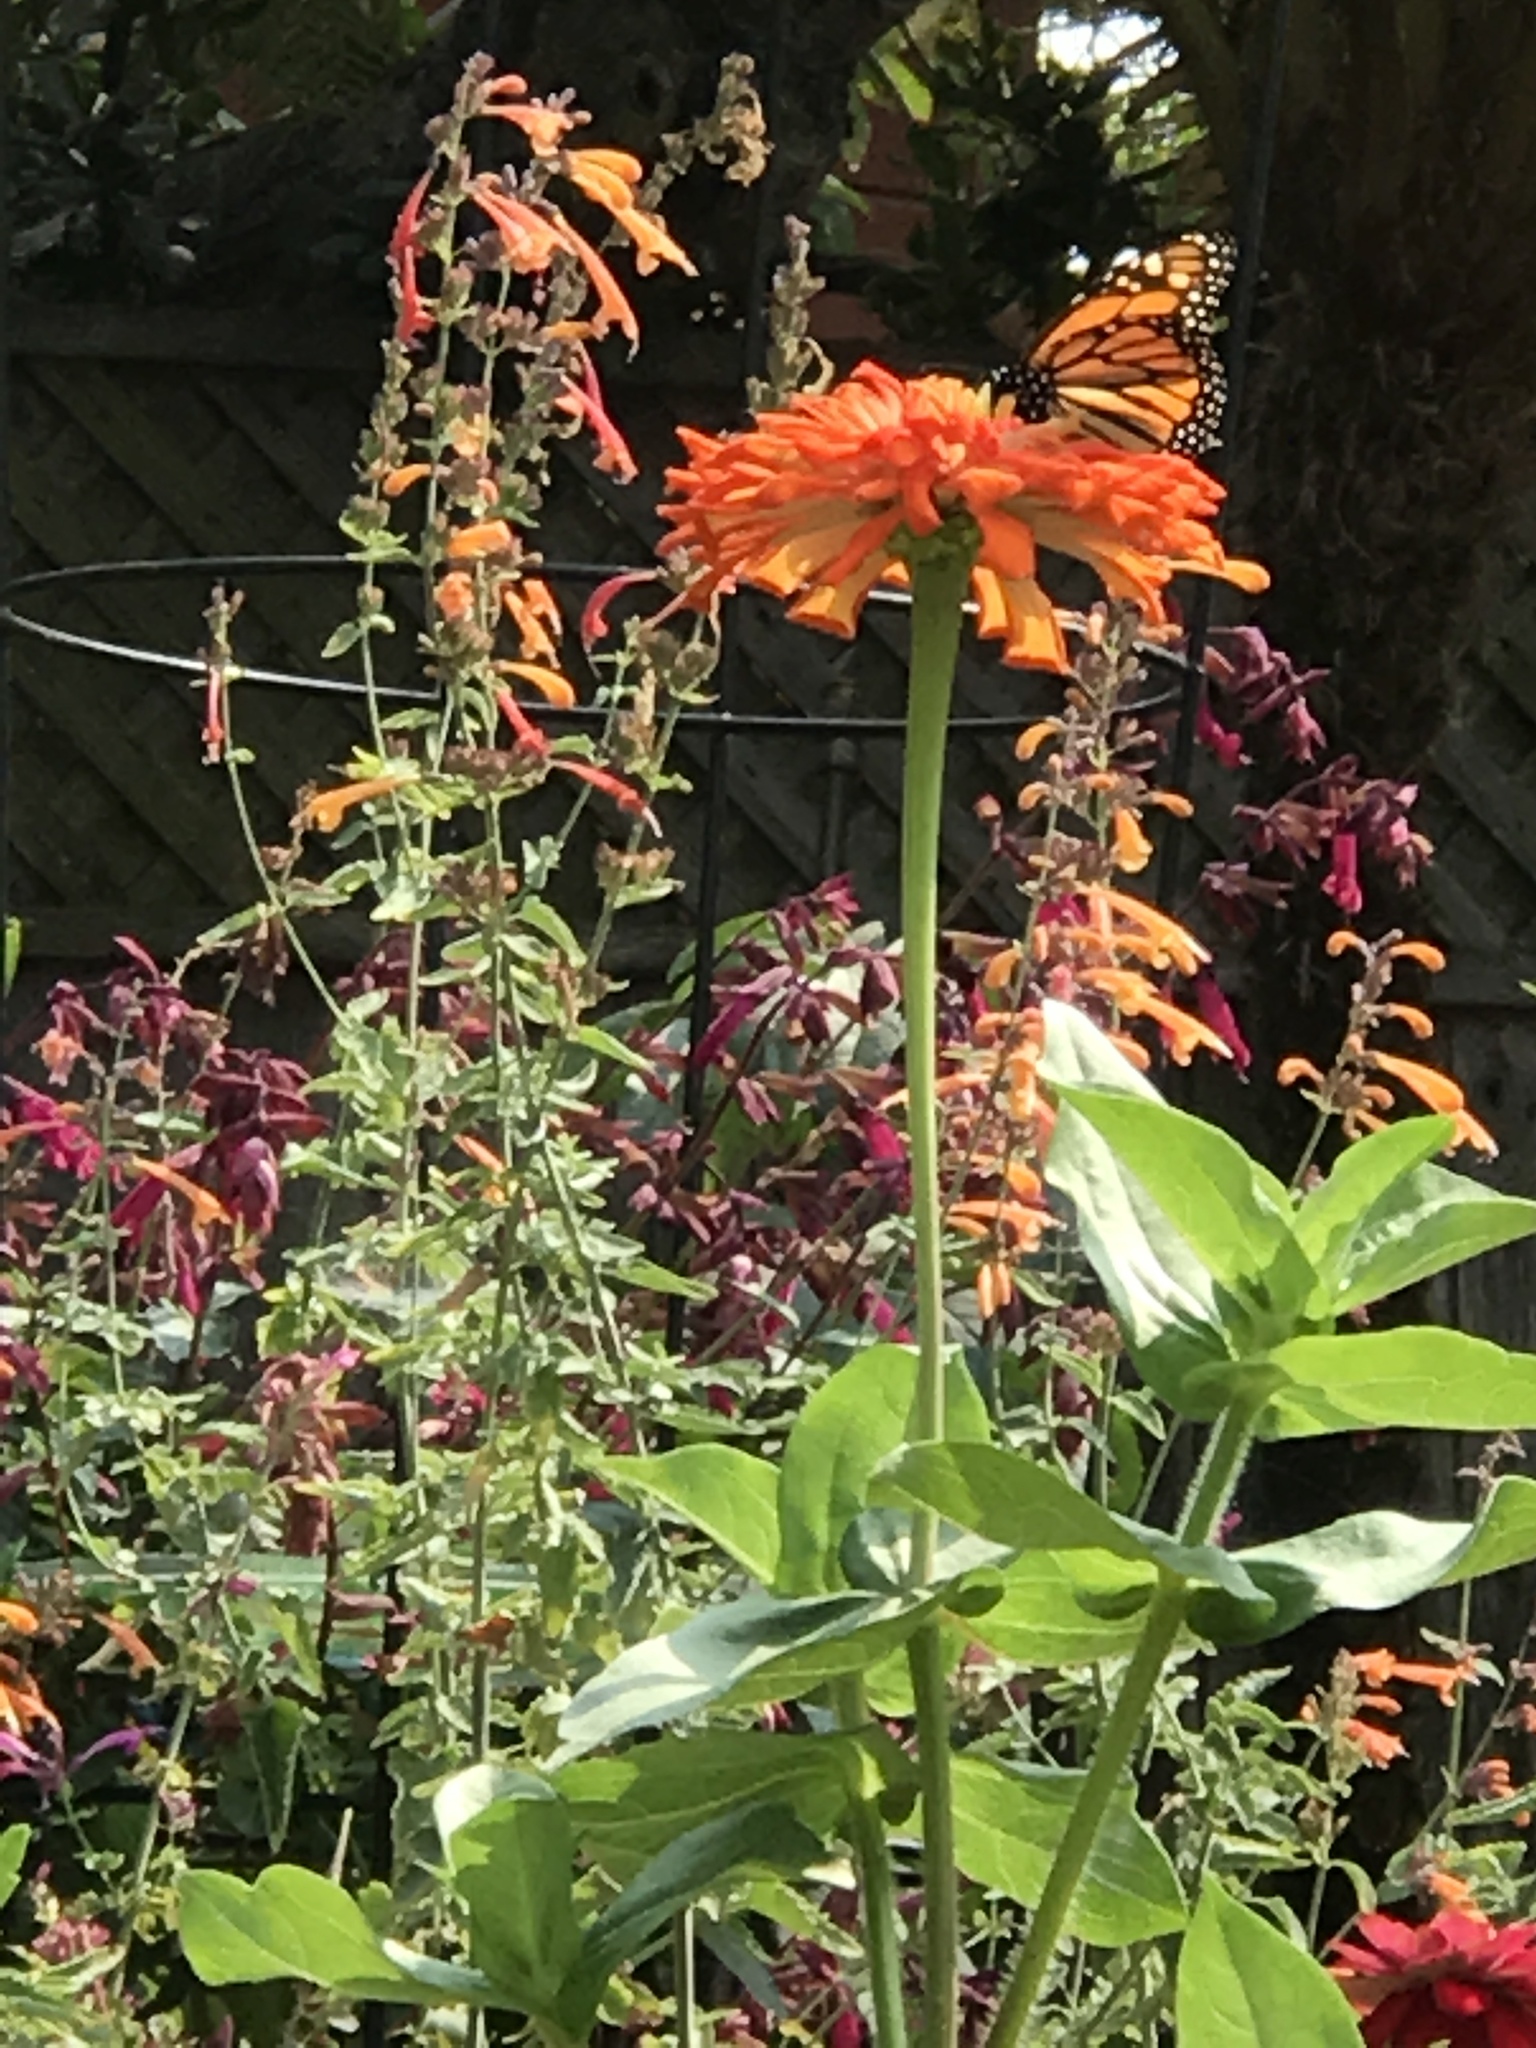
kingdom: Animalia
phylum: Arthropoda
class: Insecta
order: Lepidoptera
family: Nymphalidae
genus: Danaus
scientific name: Danaus plexippus
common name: Monarch
